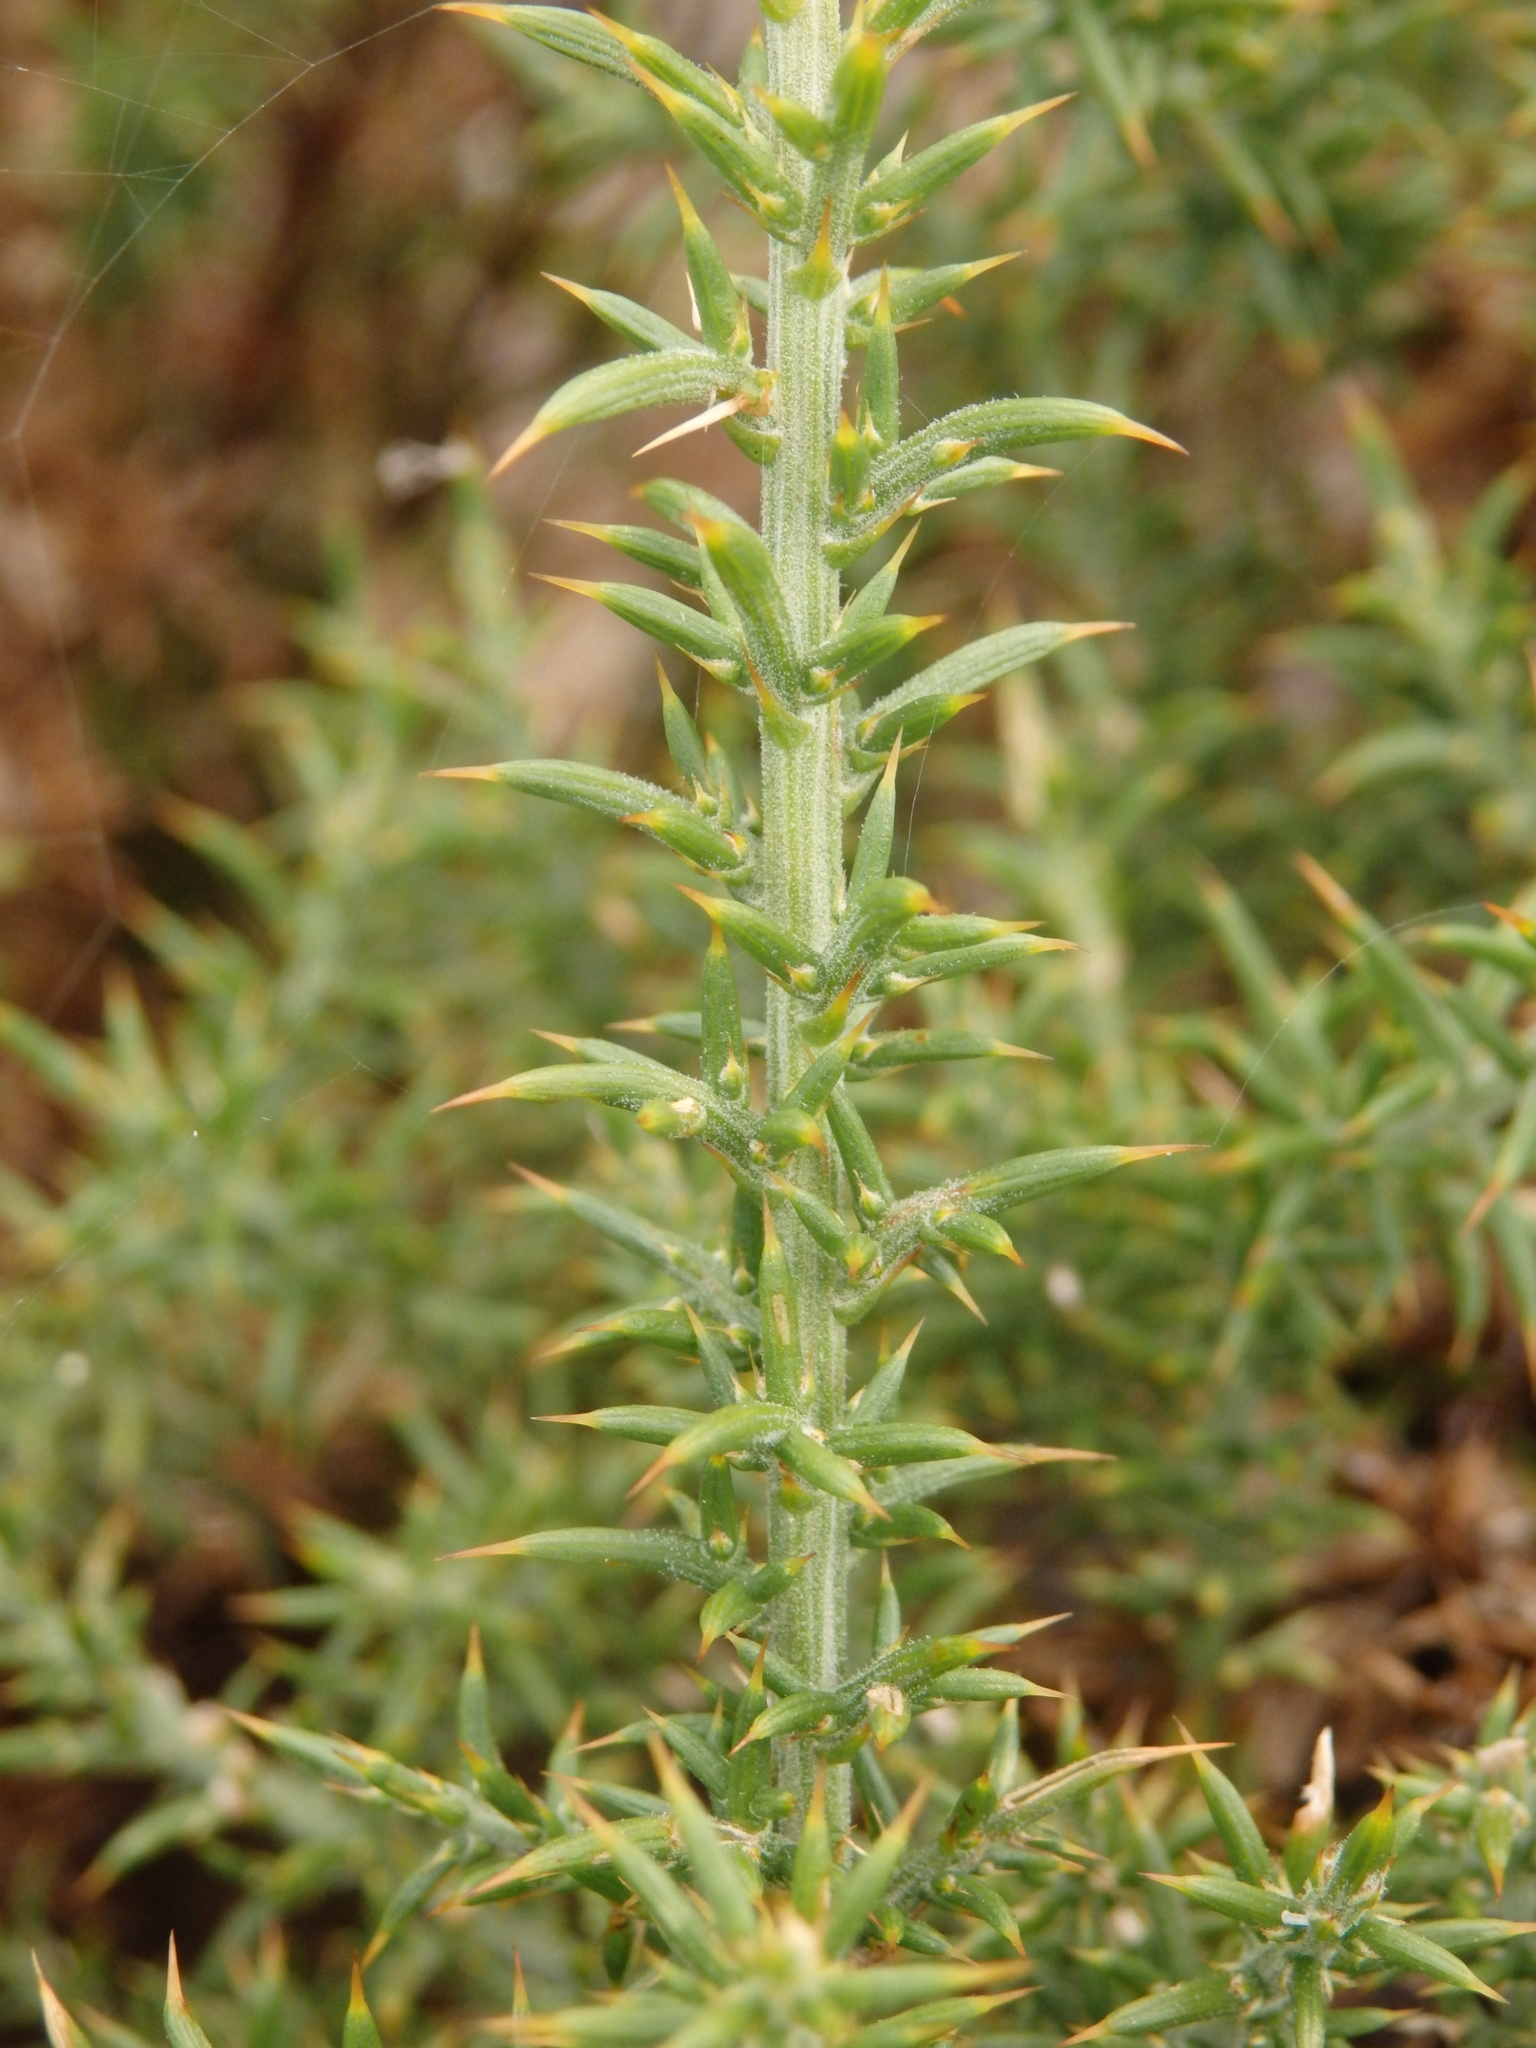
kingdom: Plantae
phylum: Tracheophyta
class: Magnoliopsida
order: Fabales
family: Fabaceae
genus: Ulex
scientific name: Ulex micranthus
